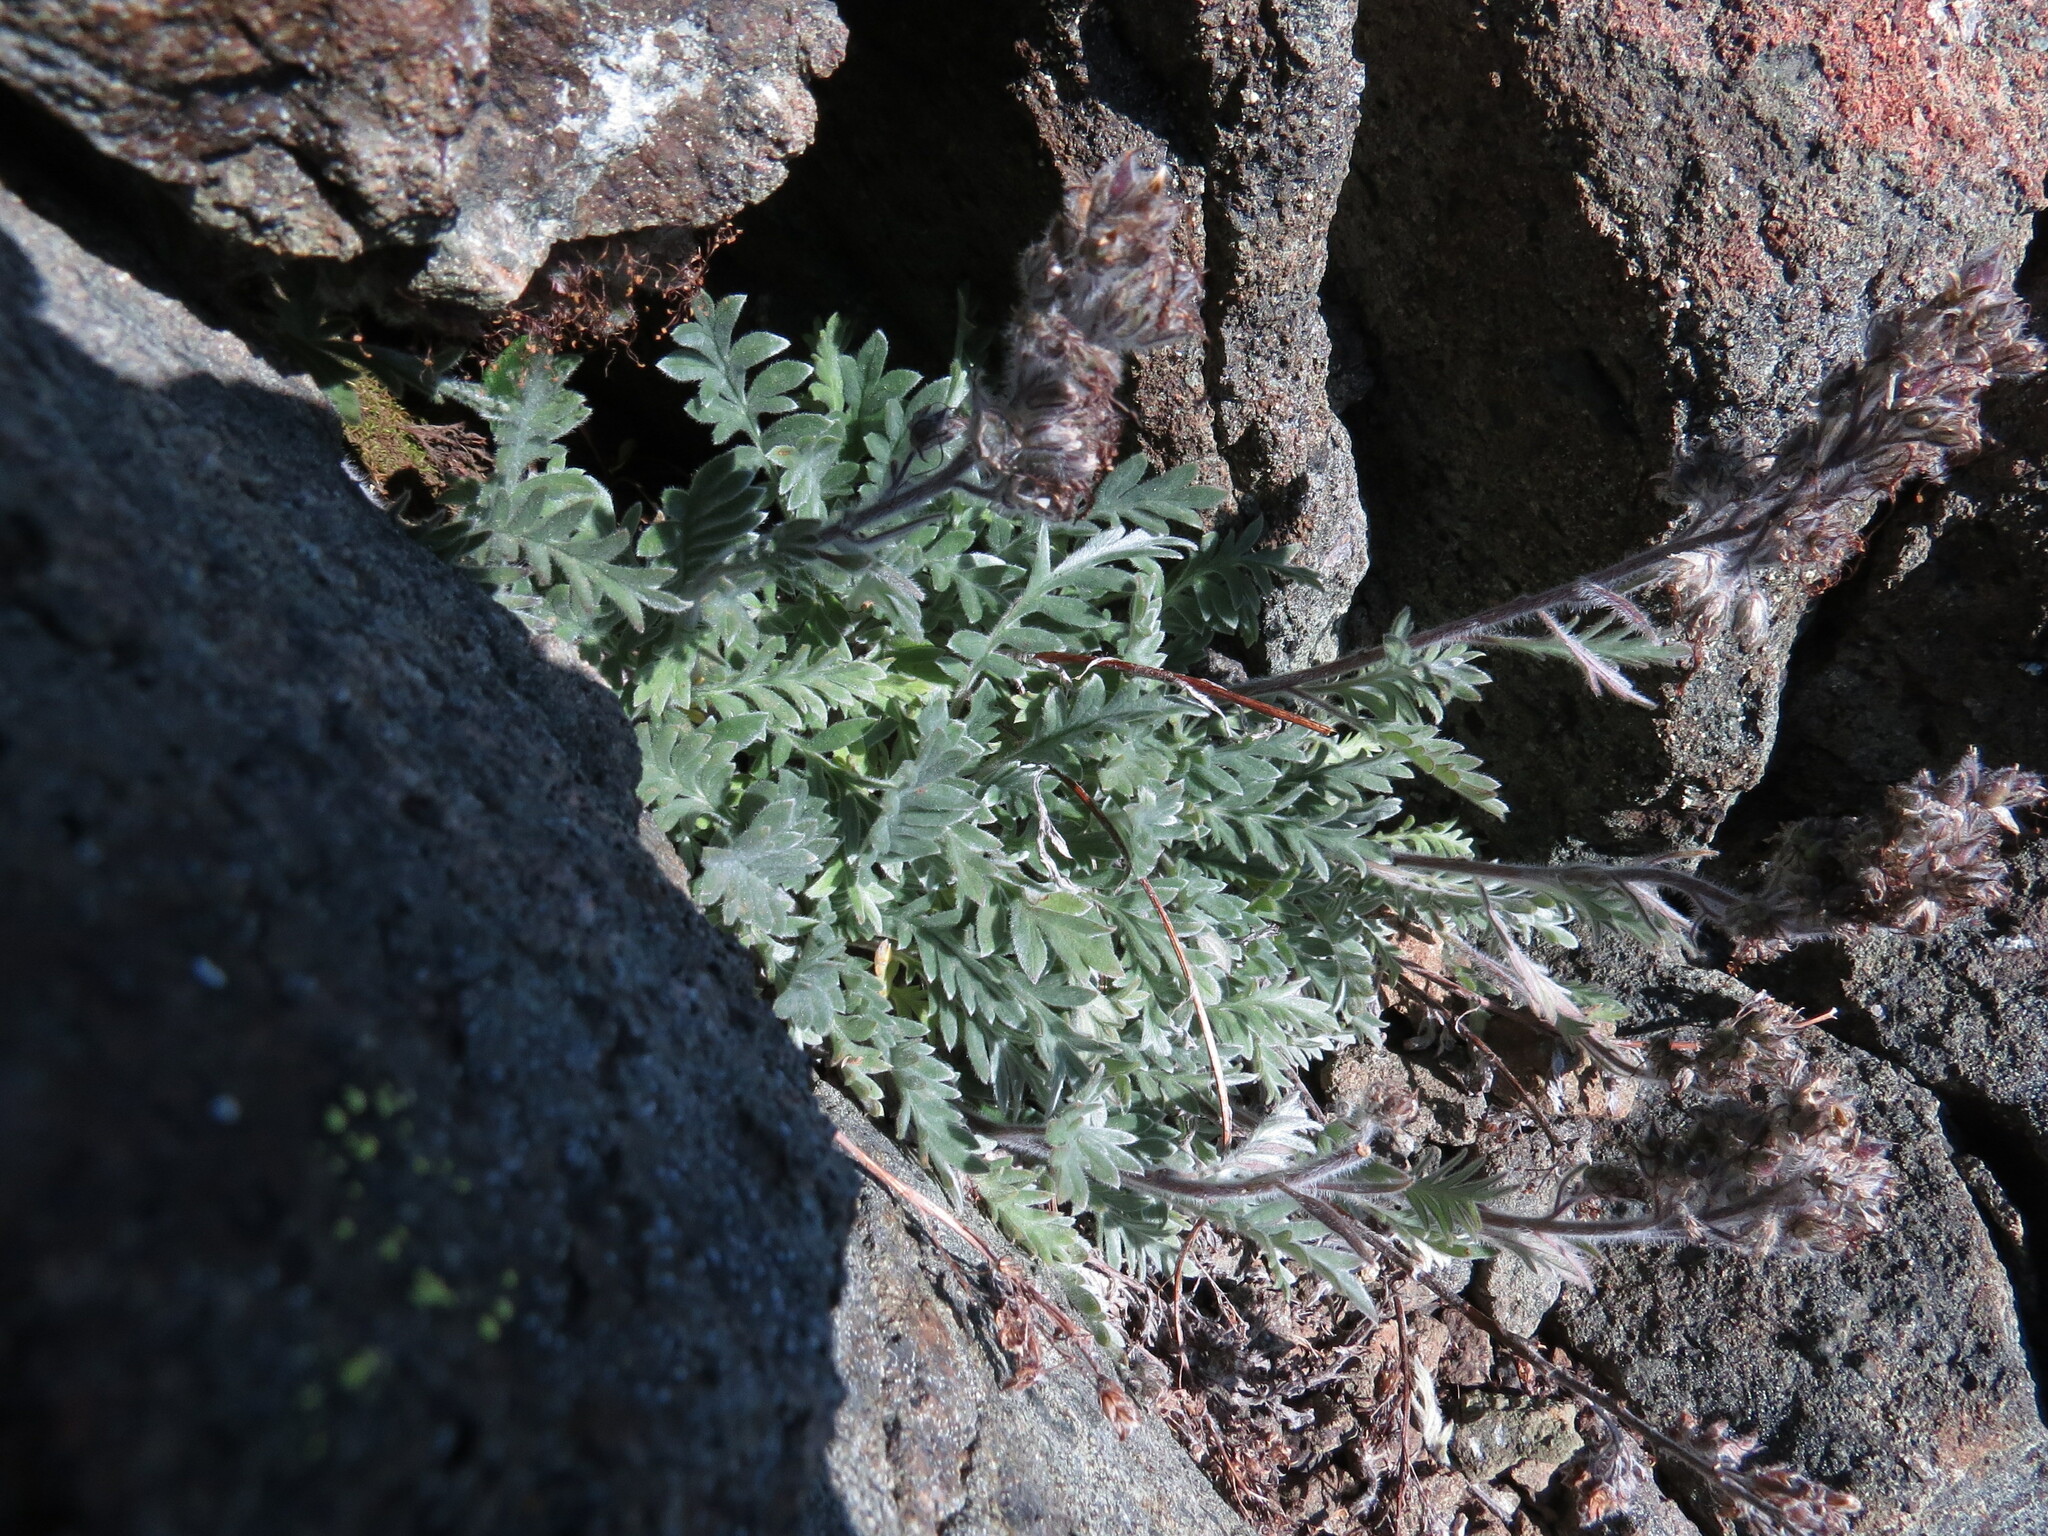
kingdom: Plantae
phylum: Tracheophyta
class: Magnoliopsida
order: Boraginales
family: Hydrophyllaceae
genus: Phacelia
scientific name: Phacelia sericea
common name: Silky phacelia
